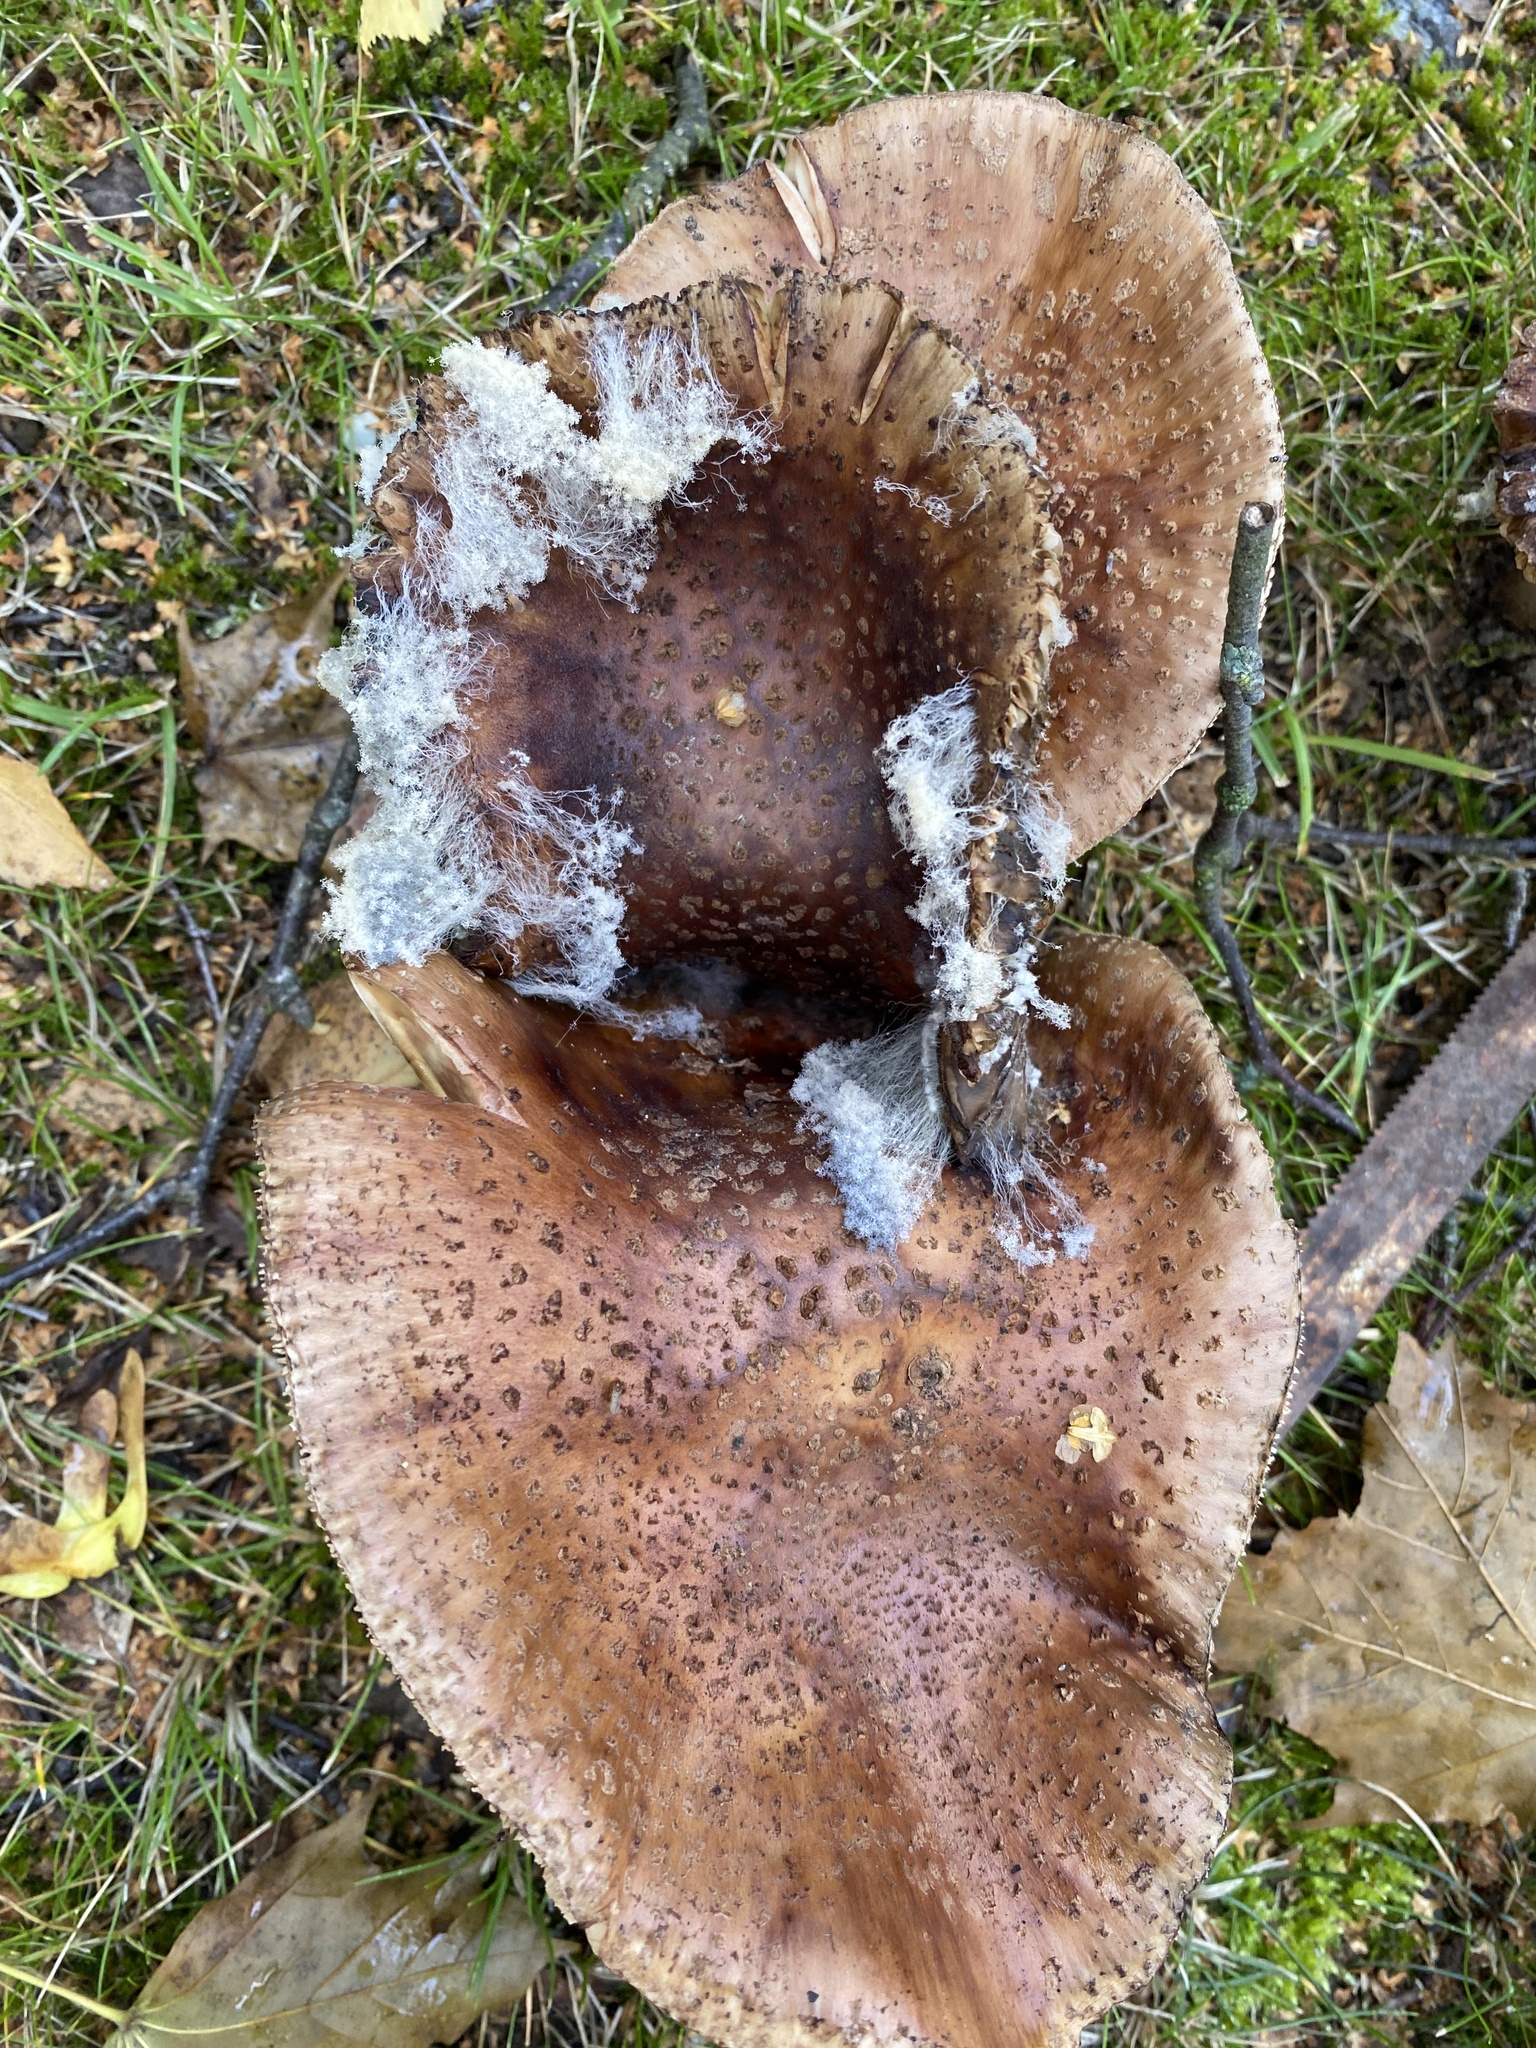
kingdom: Fungi
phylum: Basidiomycota
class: Agaricomycetes
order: Agaricales
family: Amanitaceae
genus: Amanita
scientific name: Amanita rubescens
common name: Blusher
